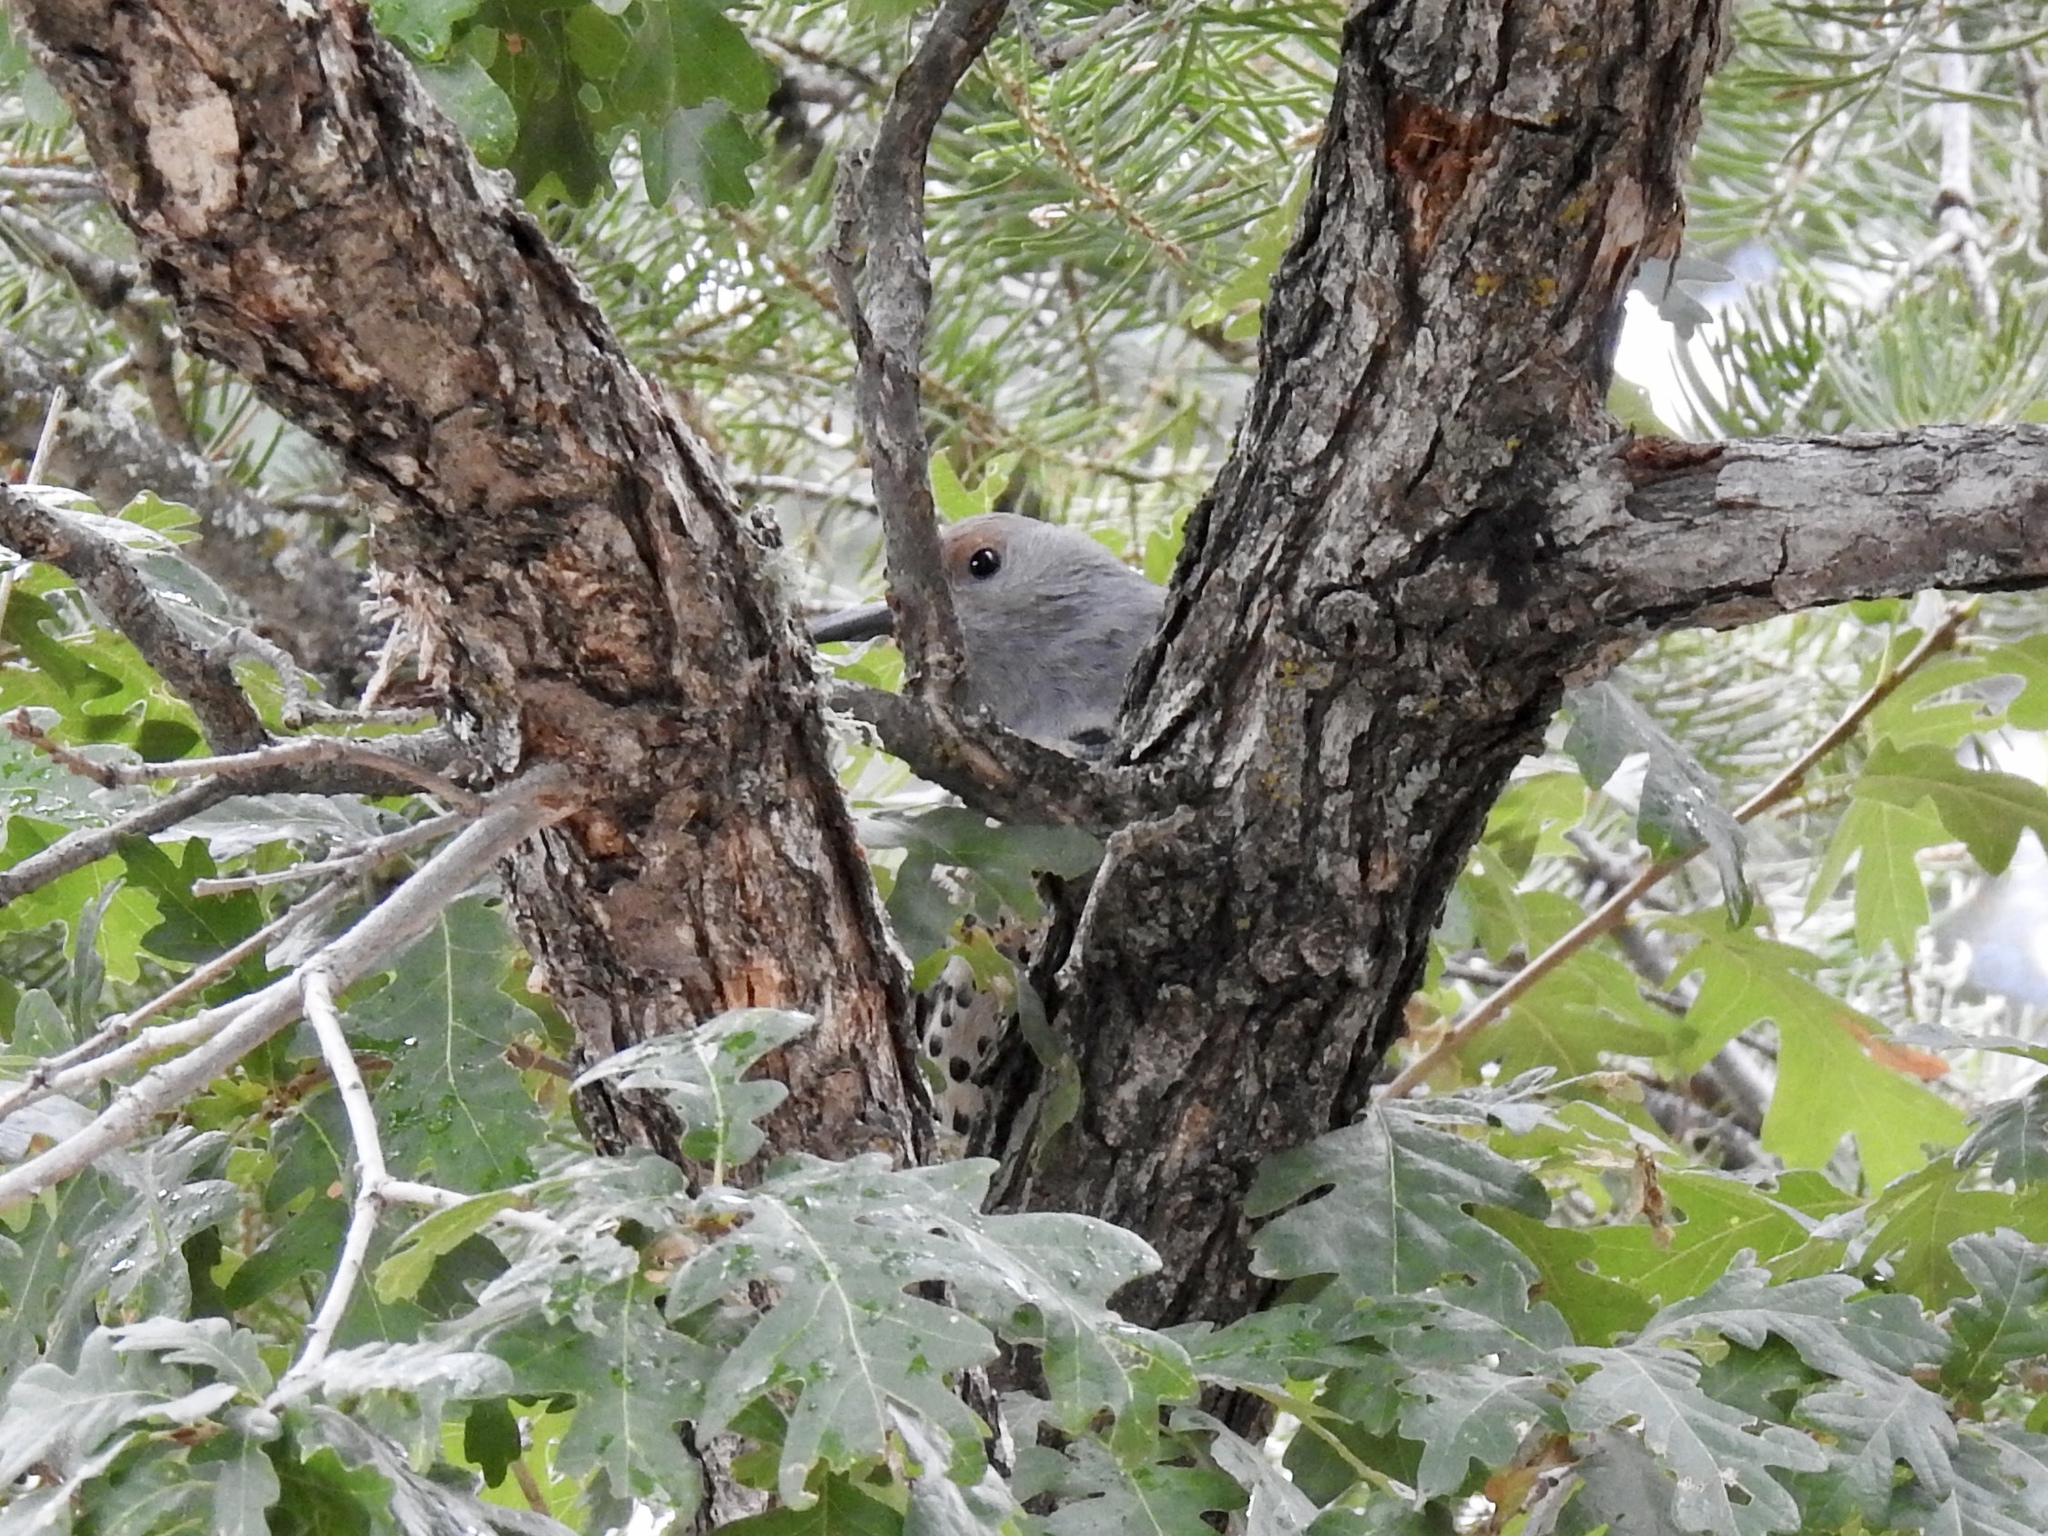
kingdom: Animalia
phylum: Chordata
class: Aves
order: Piciformes
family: Picidae
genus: Colaptes
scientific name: Colaptes auratus
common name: Northern flicker
